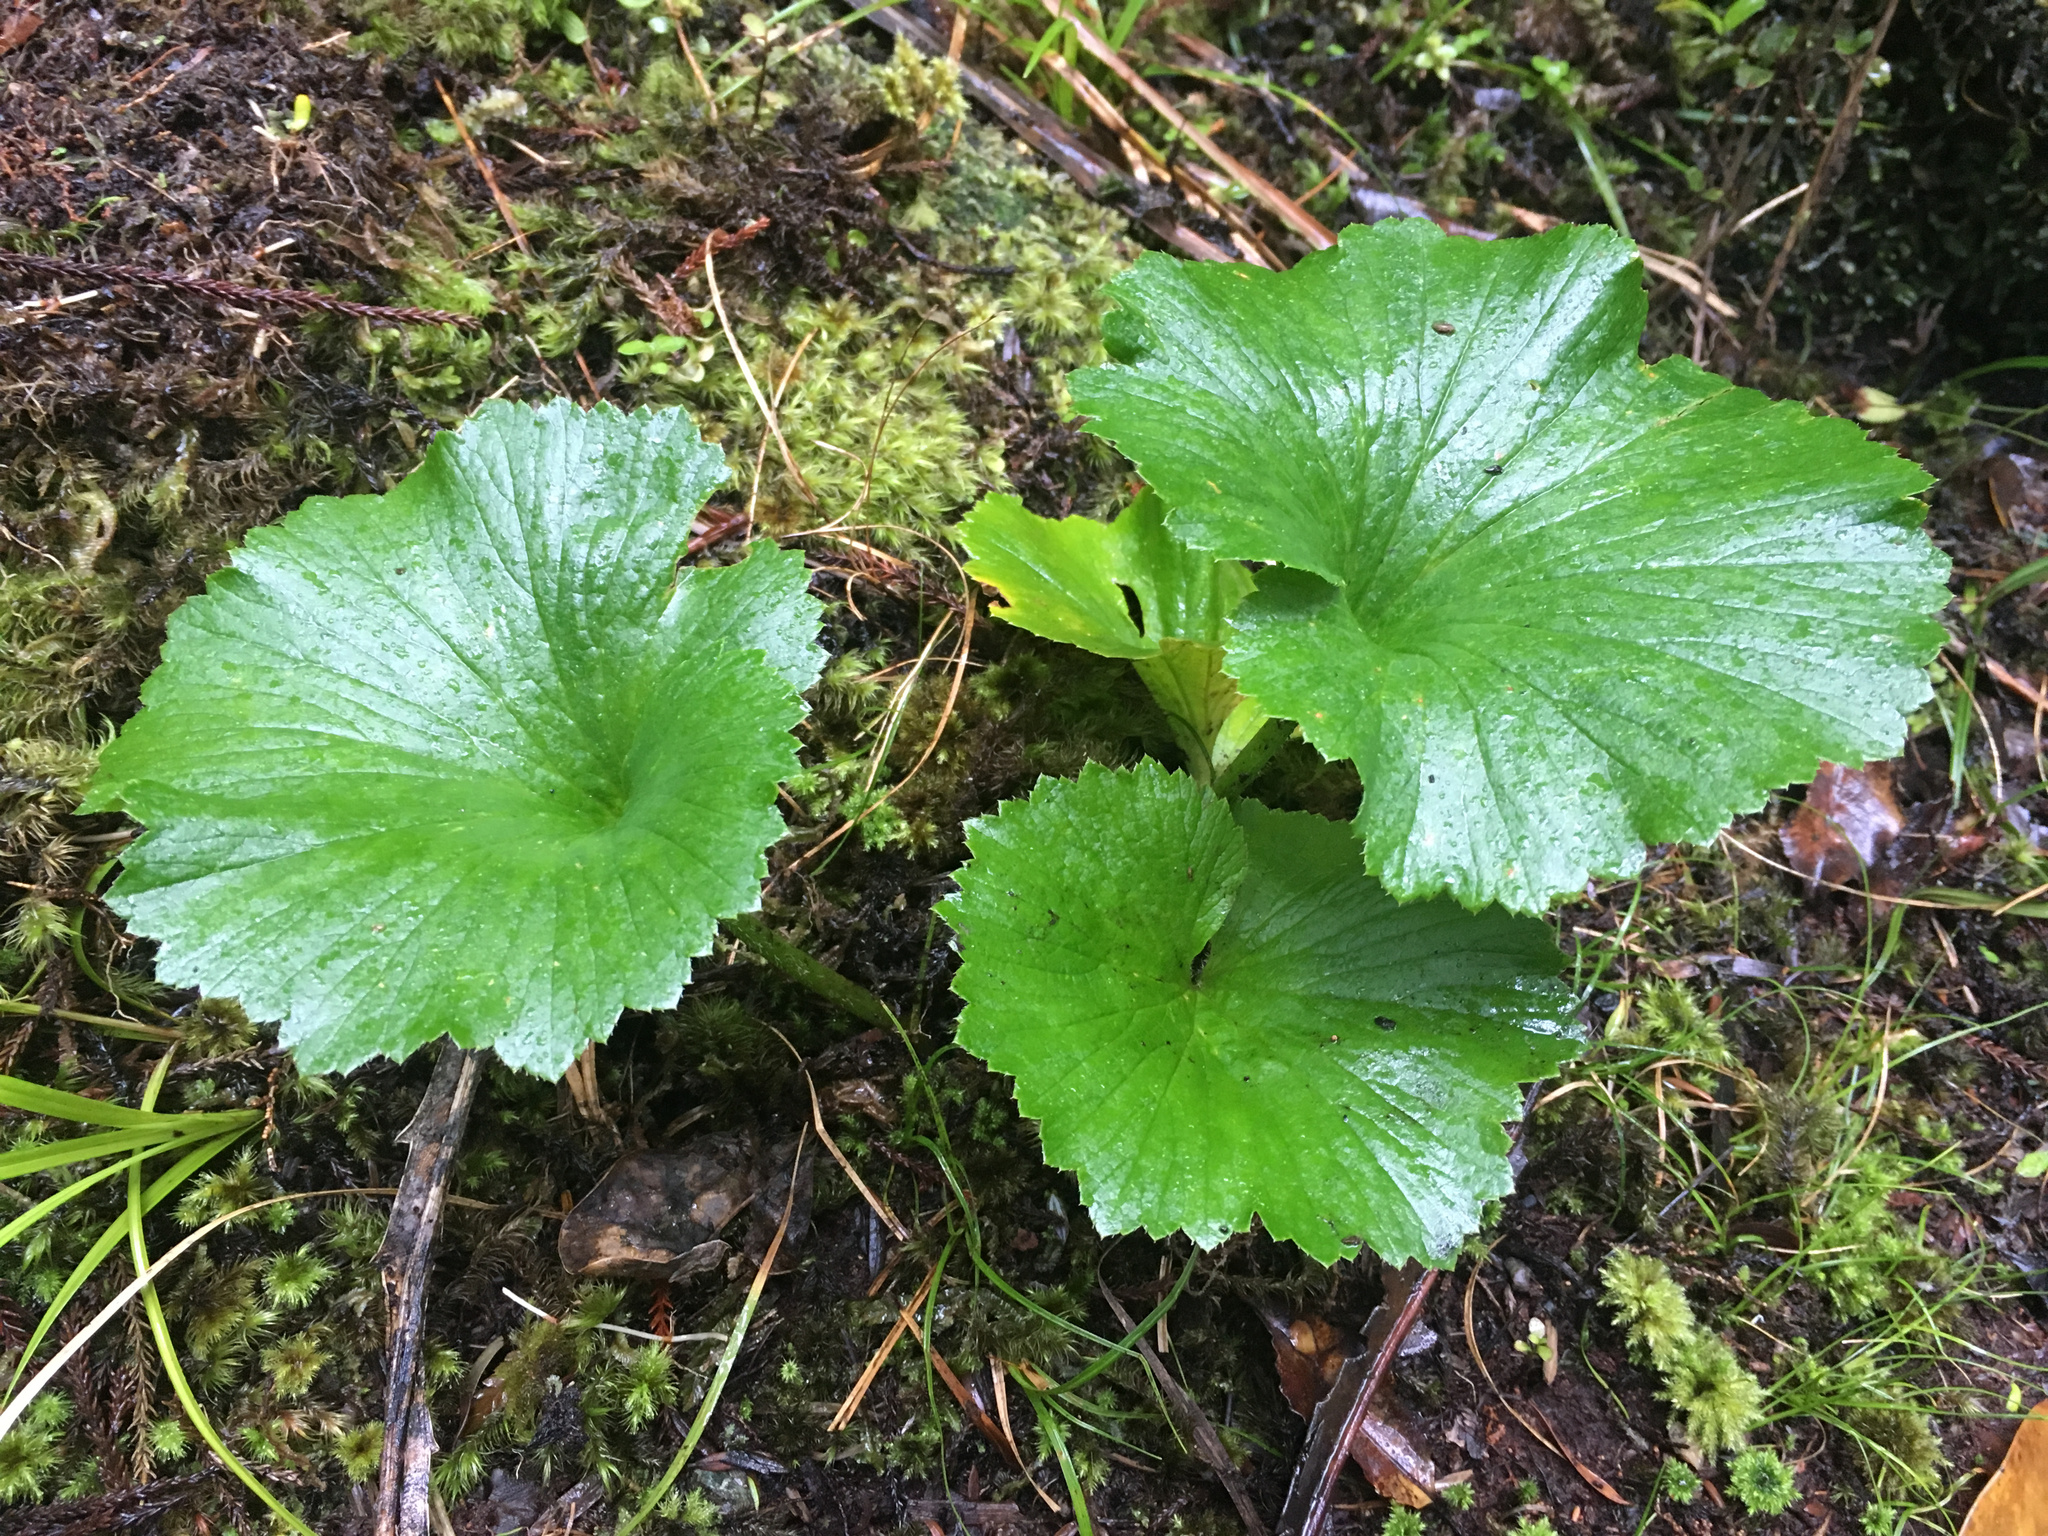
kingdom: Plantae
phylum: Tracheophyta
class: Magnoliopsida
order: Apiales
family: Apiaceae
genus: Azorella
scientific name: Azorella lyallii
